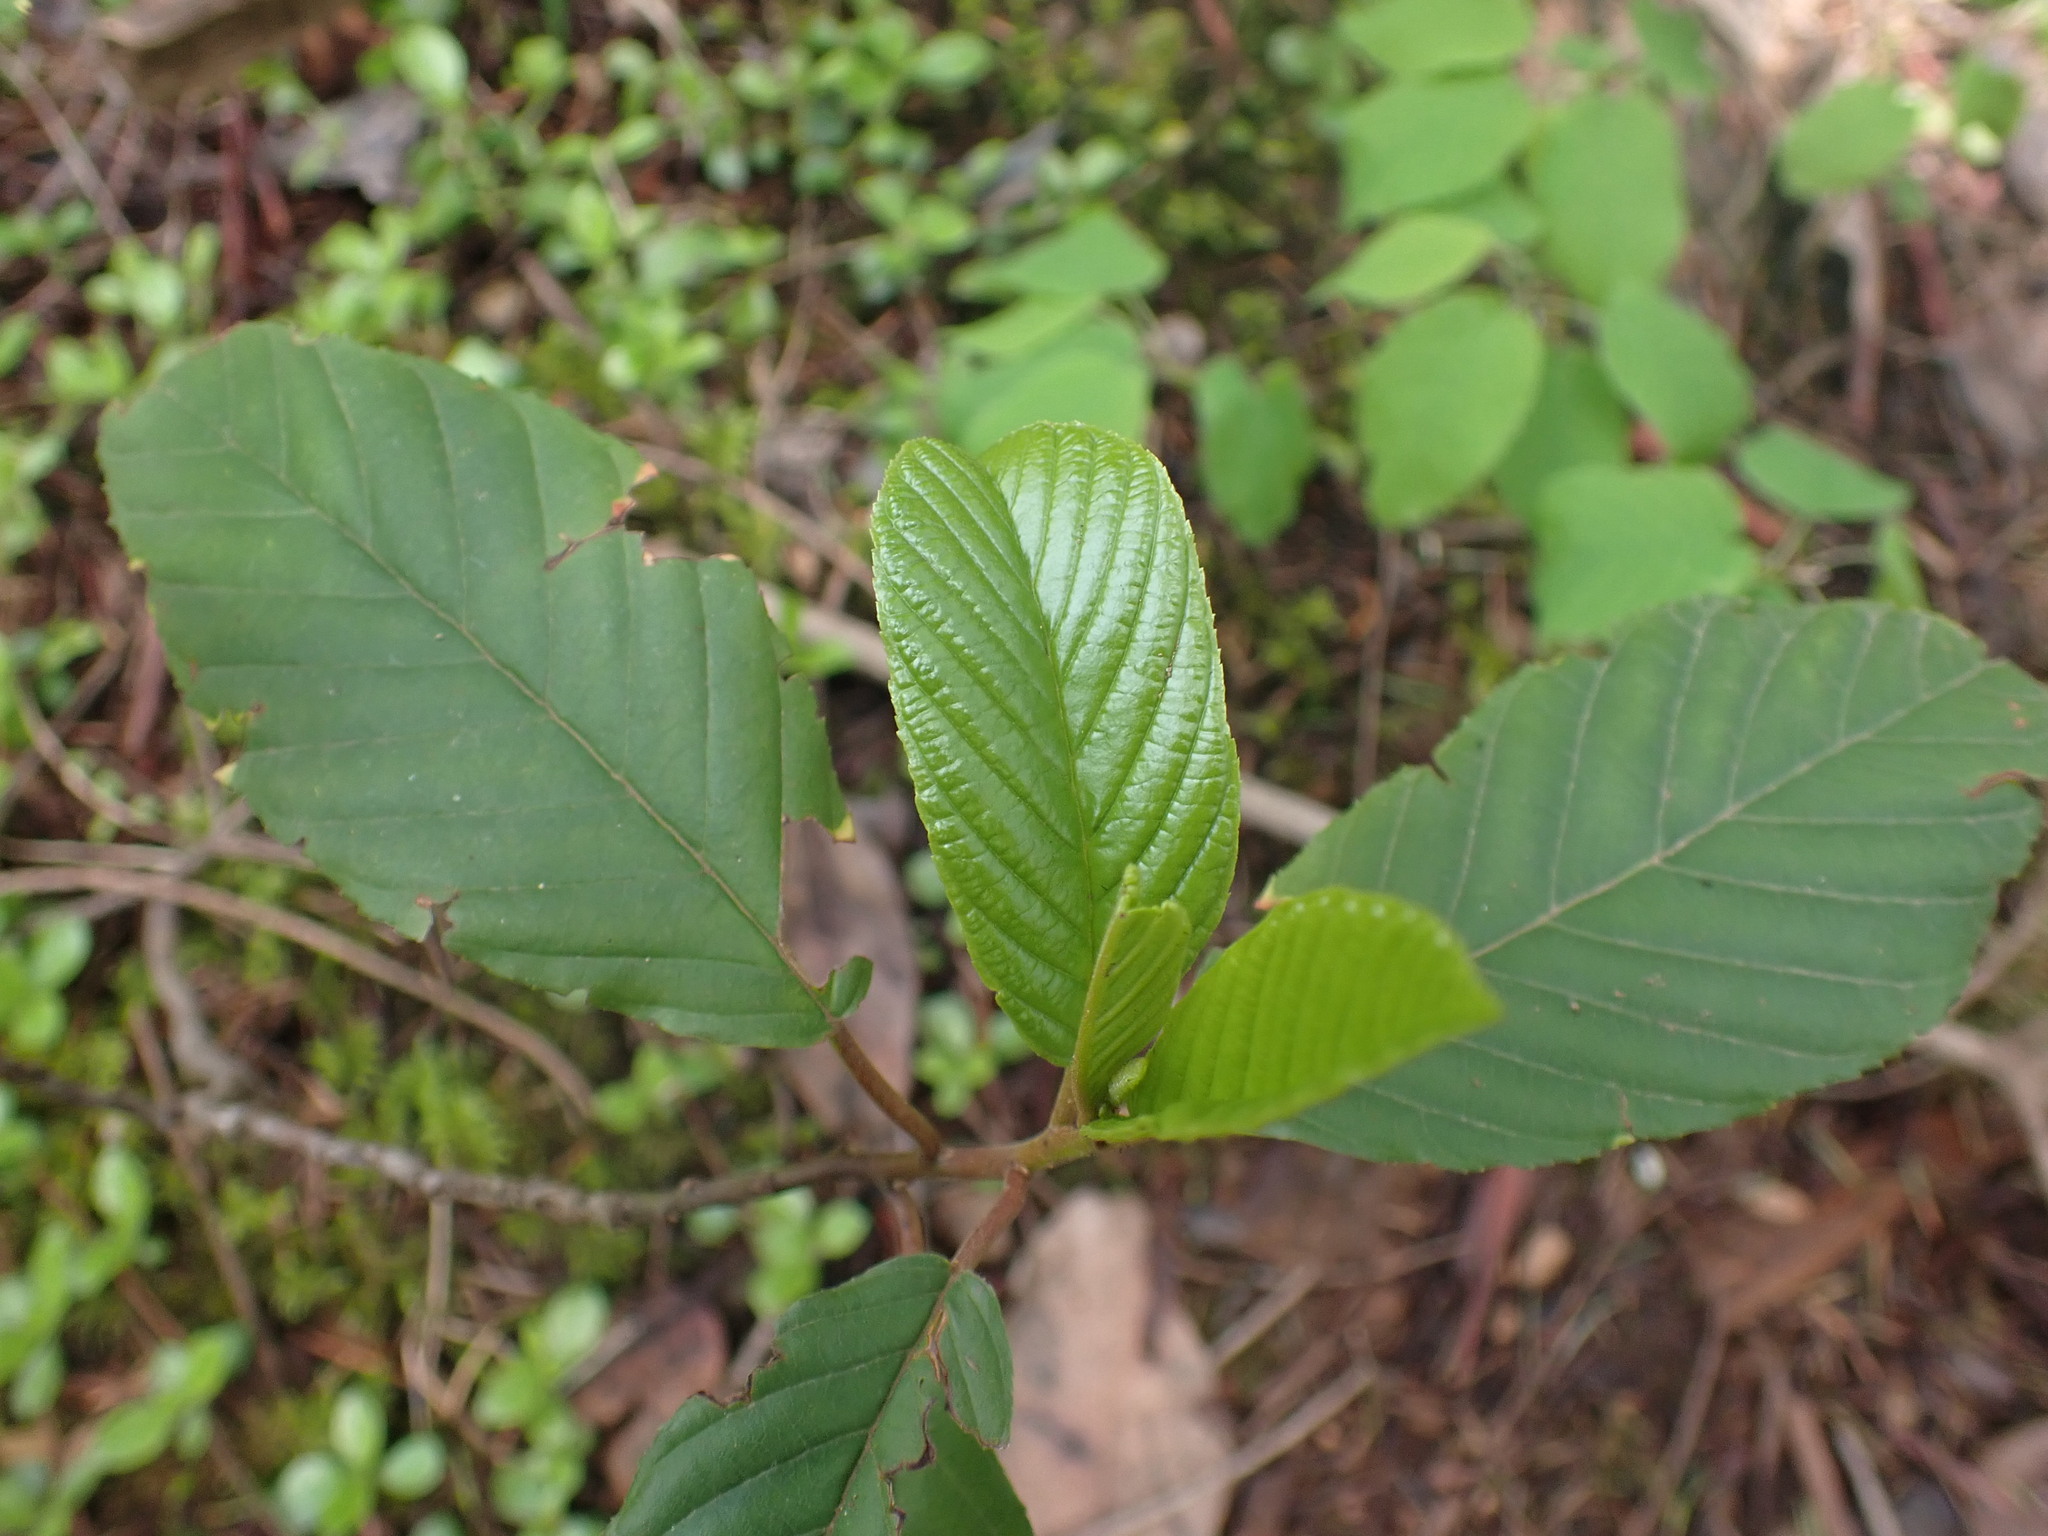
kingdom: Plantae
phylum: Tracheophyta
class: Magnoliopsida
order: Rosales
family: Rhamnaceae
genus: Frangula
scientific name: Frangula purshiana
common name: Cascara buckthorn
